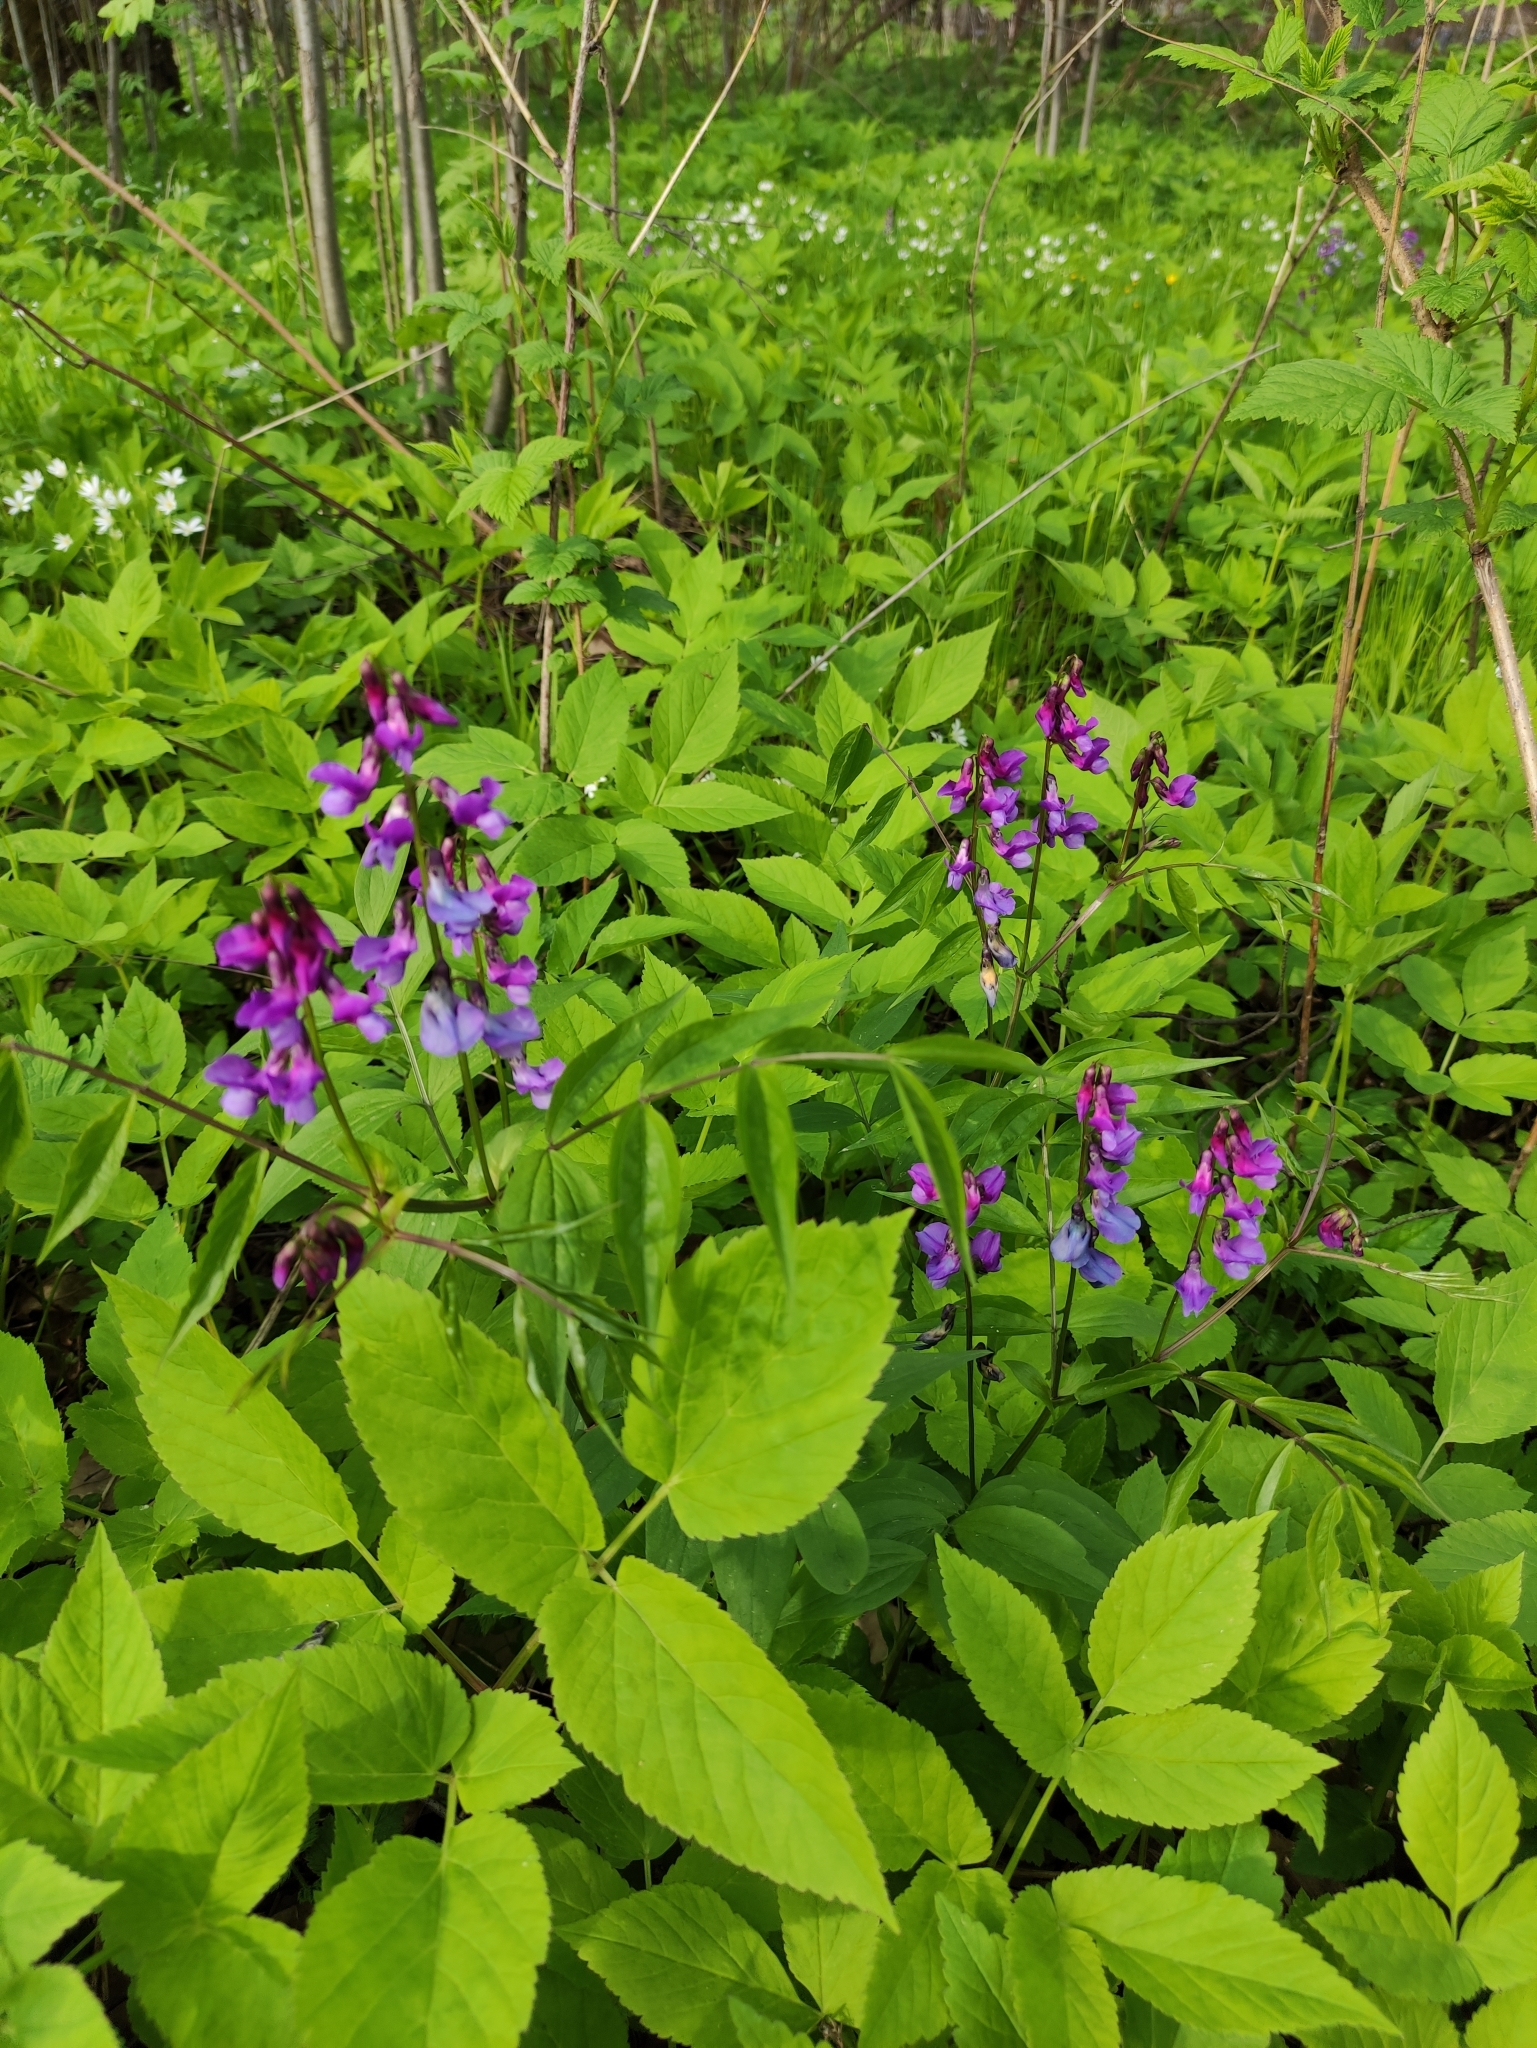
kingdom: Plantae
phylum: Tracheophyta
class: Magnoliopsida
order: Fabales
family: Fabaceae
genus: Lathyrus
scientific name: Lathyrus vernus
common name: Spring pea
